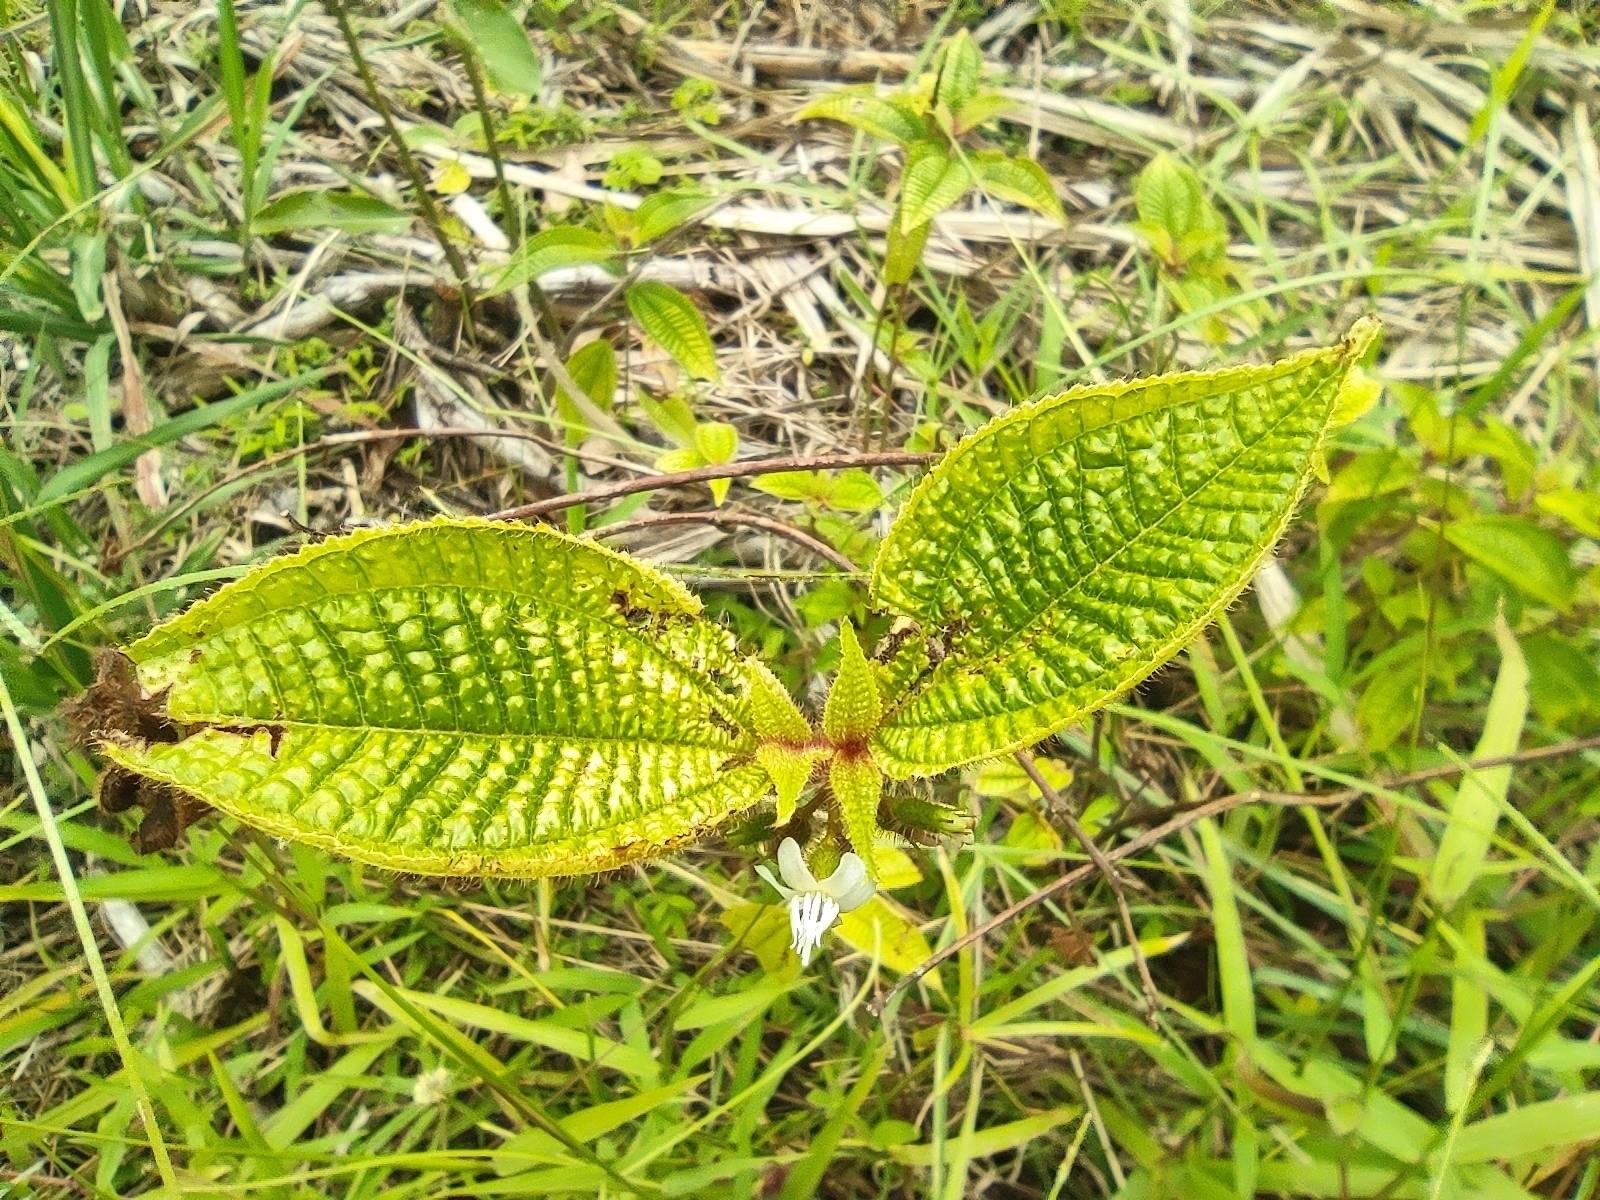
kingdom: Plantae
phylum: Tracheophyta
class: Magnoliopsida
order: Myrtales
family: Melastomataceae
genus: Miconia
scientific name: Miconia crenata
